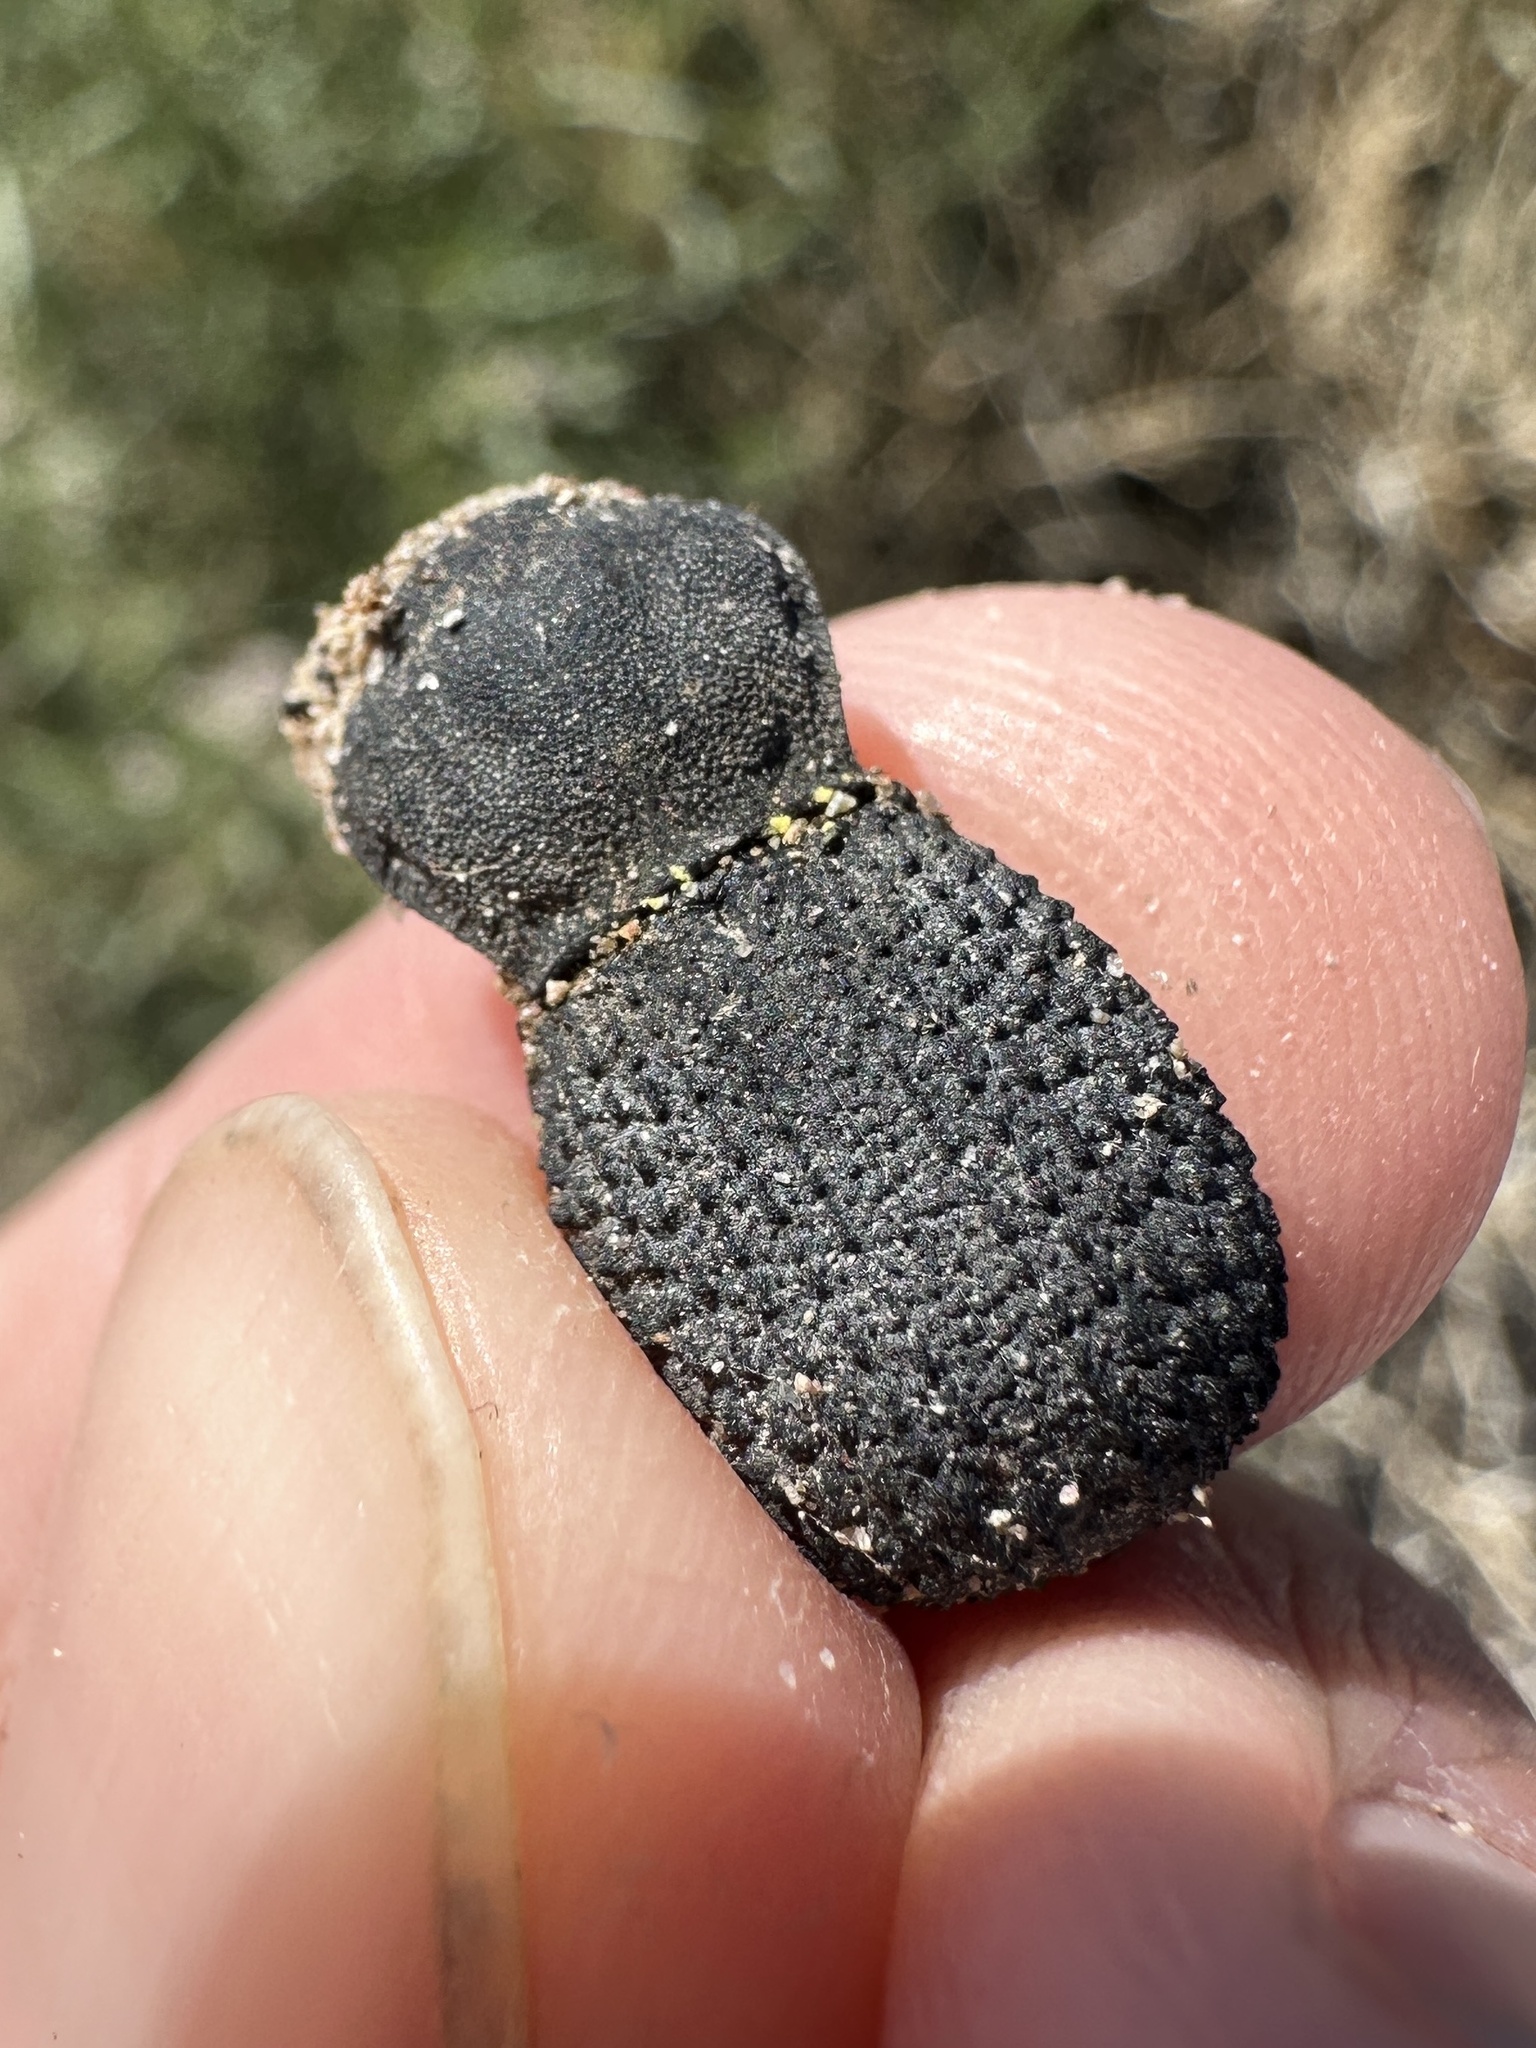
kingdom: Animalia
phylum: Arthropoda
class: Insecta
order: Coleoptera
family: Tenebrionidae
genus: Asbolus
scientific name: Asbolus verrucosus
